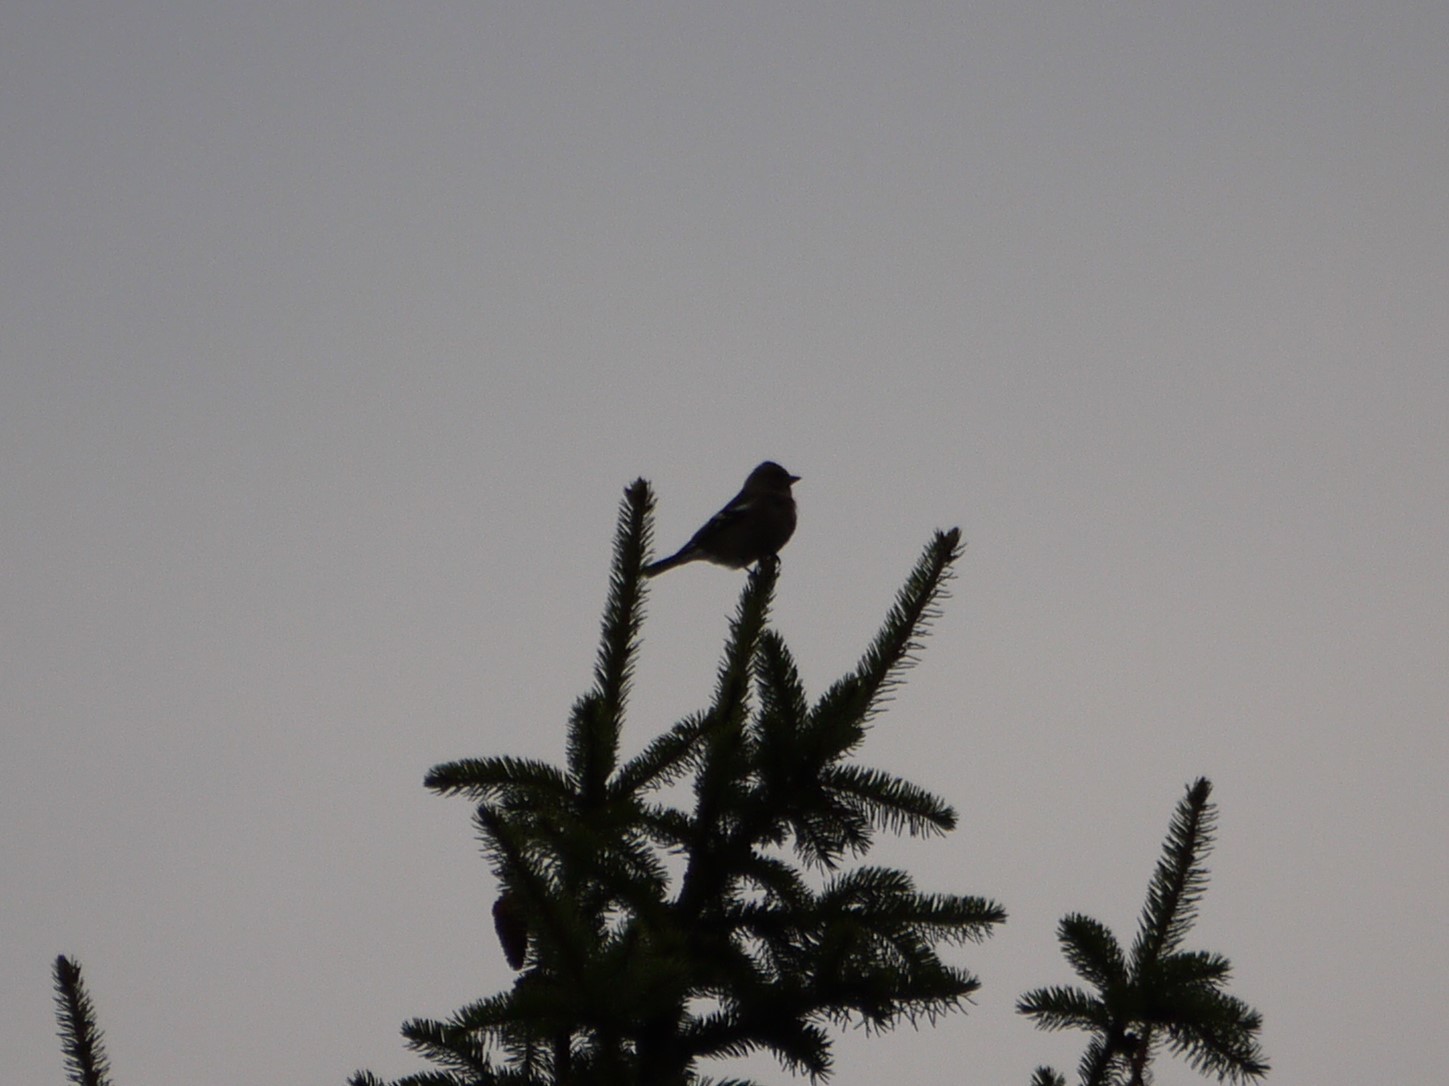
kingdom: Animalia
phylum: Chordata
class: Aves
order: Passeriformes
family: Fringillidae
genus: Fringilla
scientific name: Fringilla coelebs
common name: Common chaffinch
